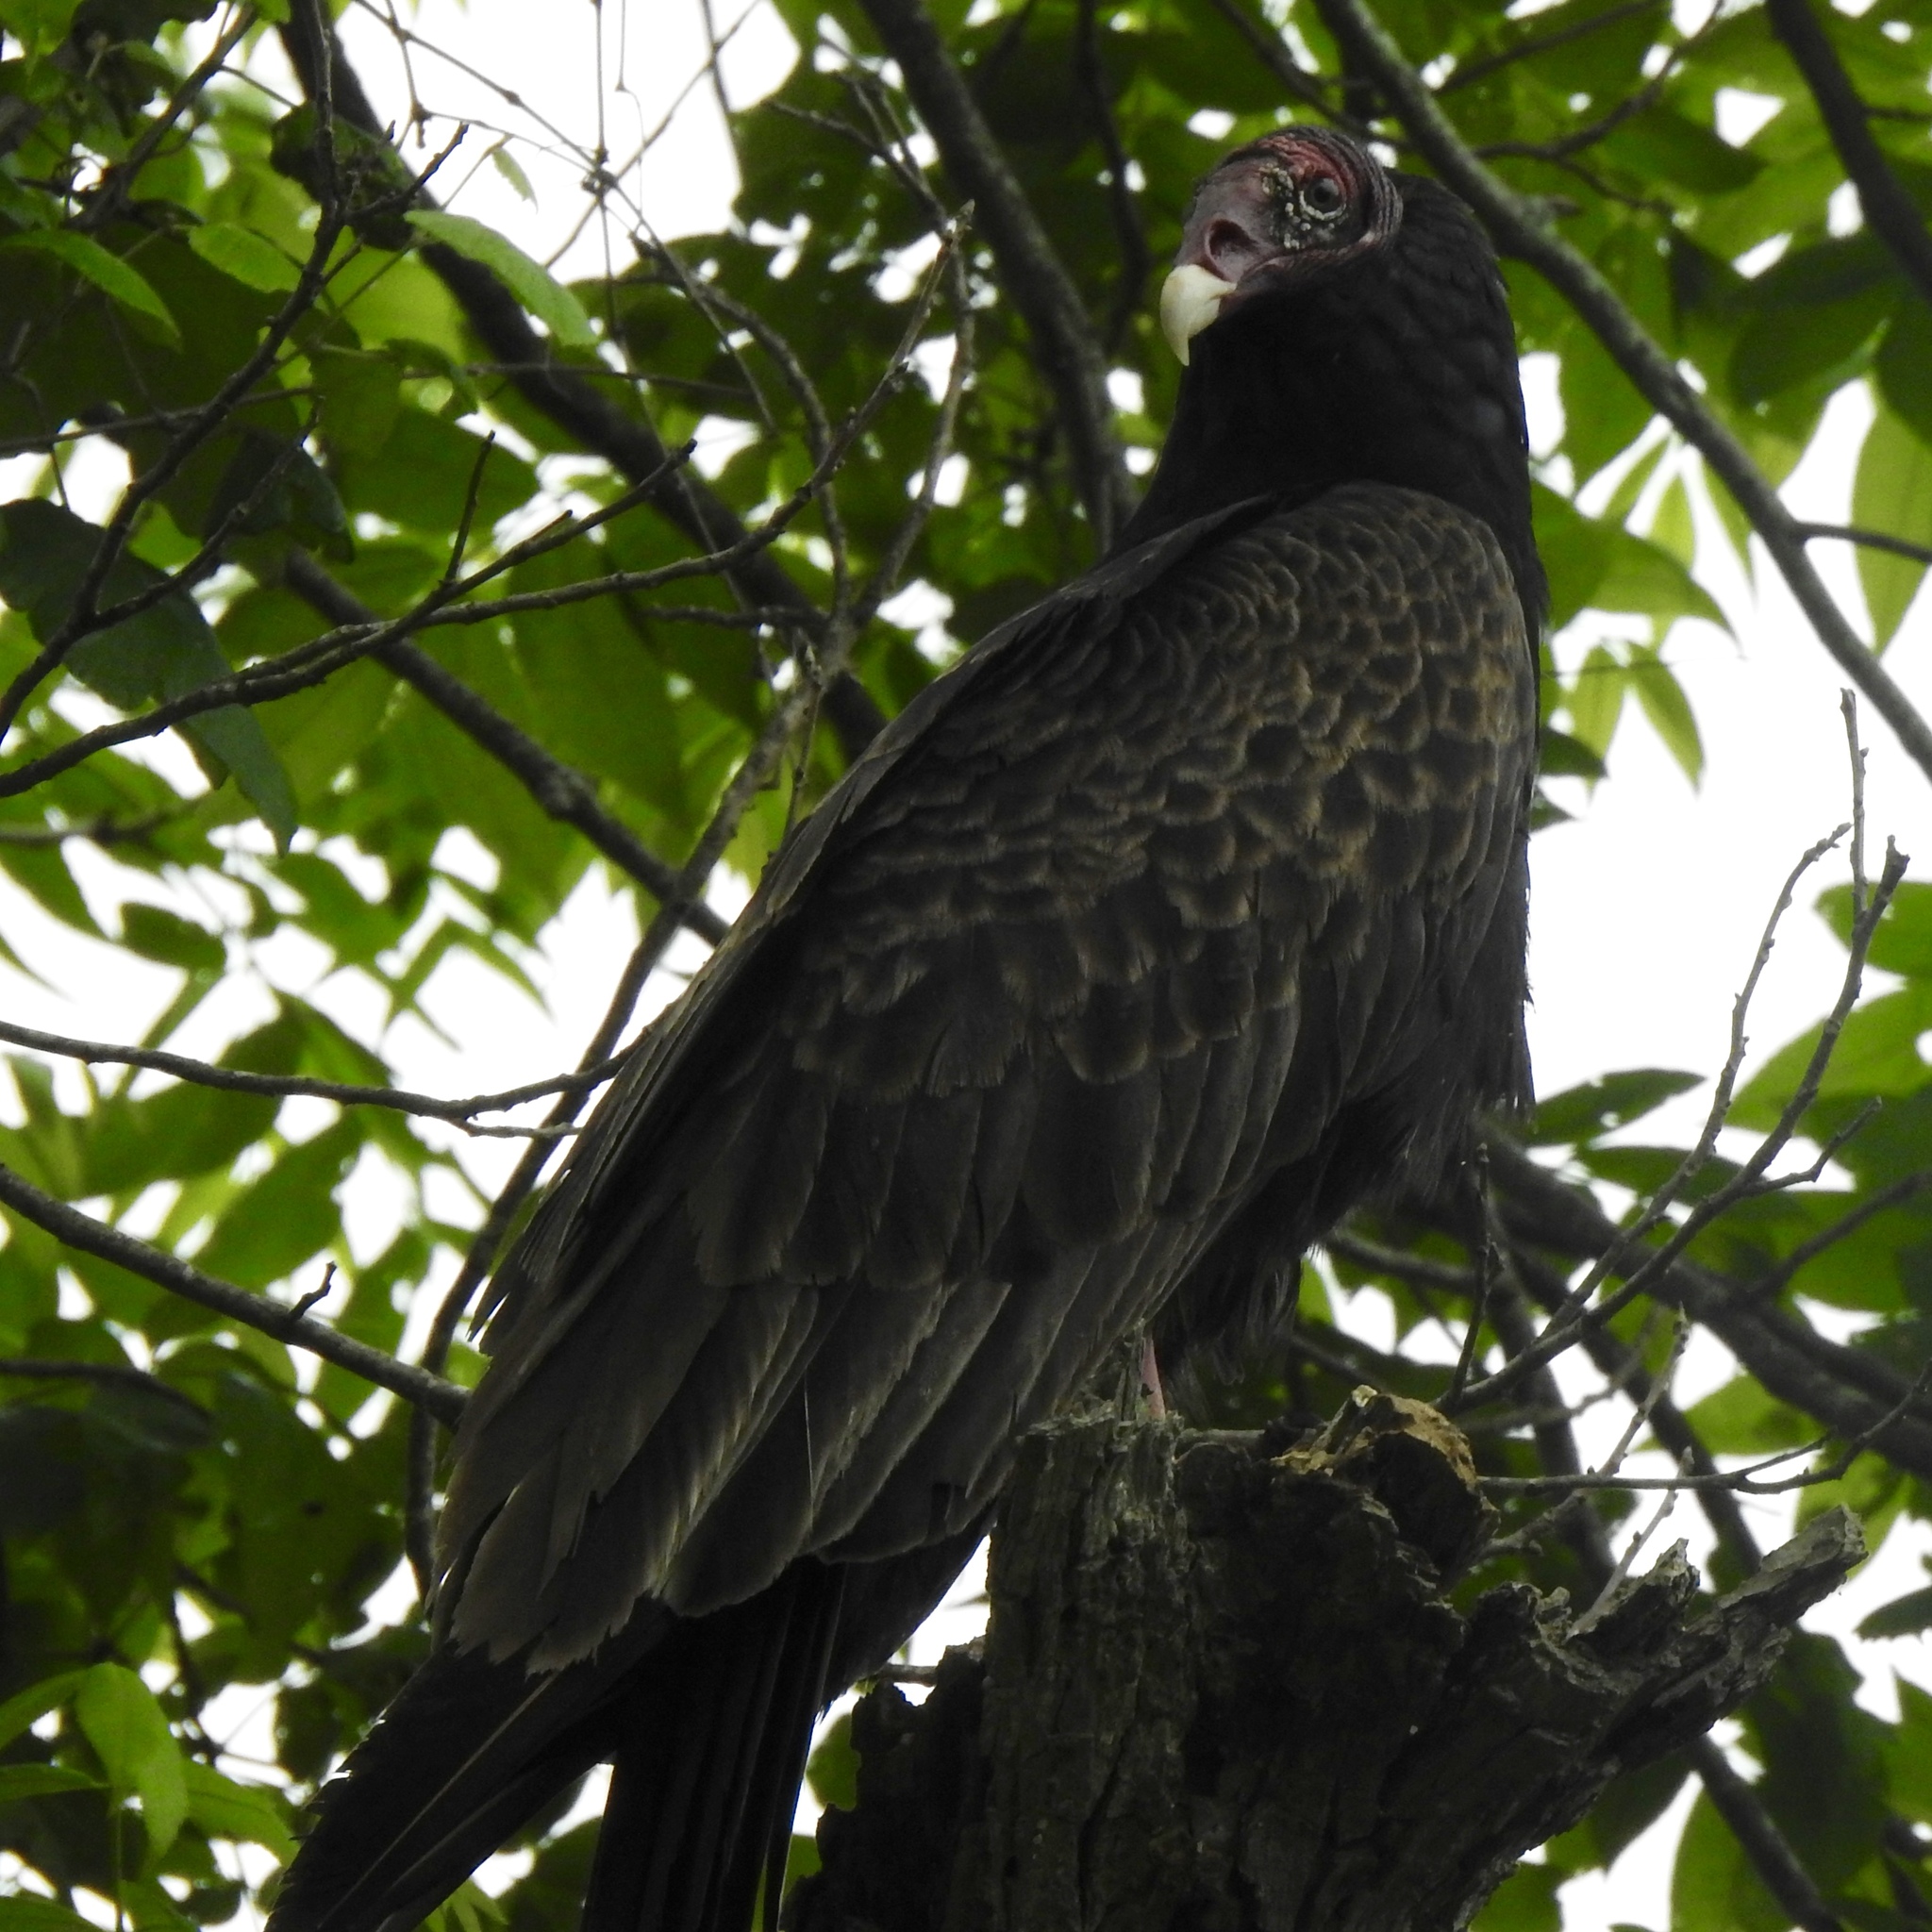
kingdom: Animalia
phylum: Chordata
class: Aves
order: Accipitriformes
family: Cathartidae
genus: Cathartes
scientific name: Cathartes aura
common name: Turkey vulture
